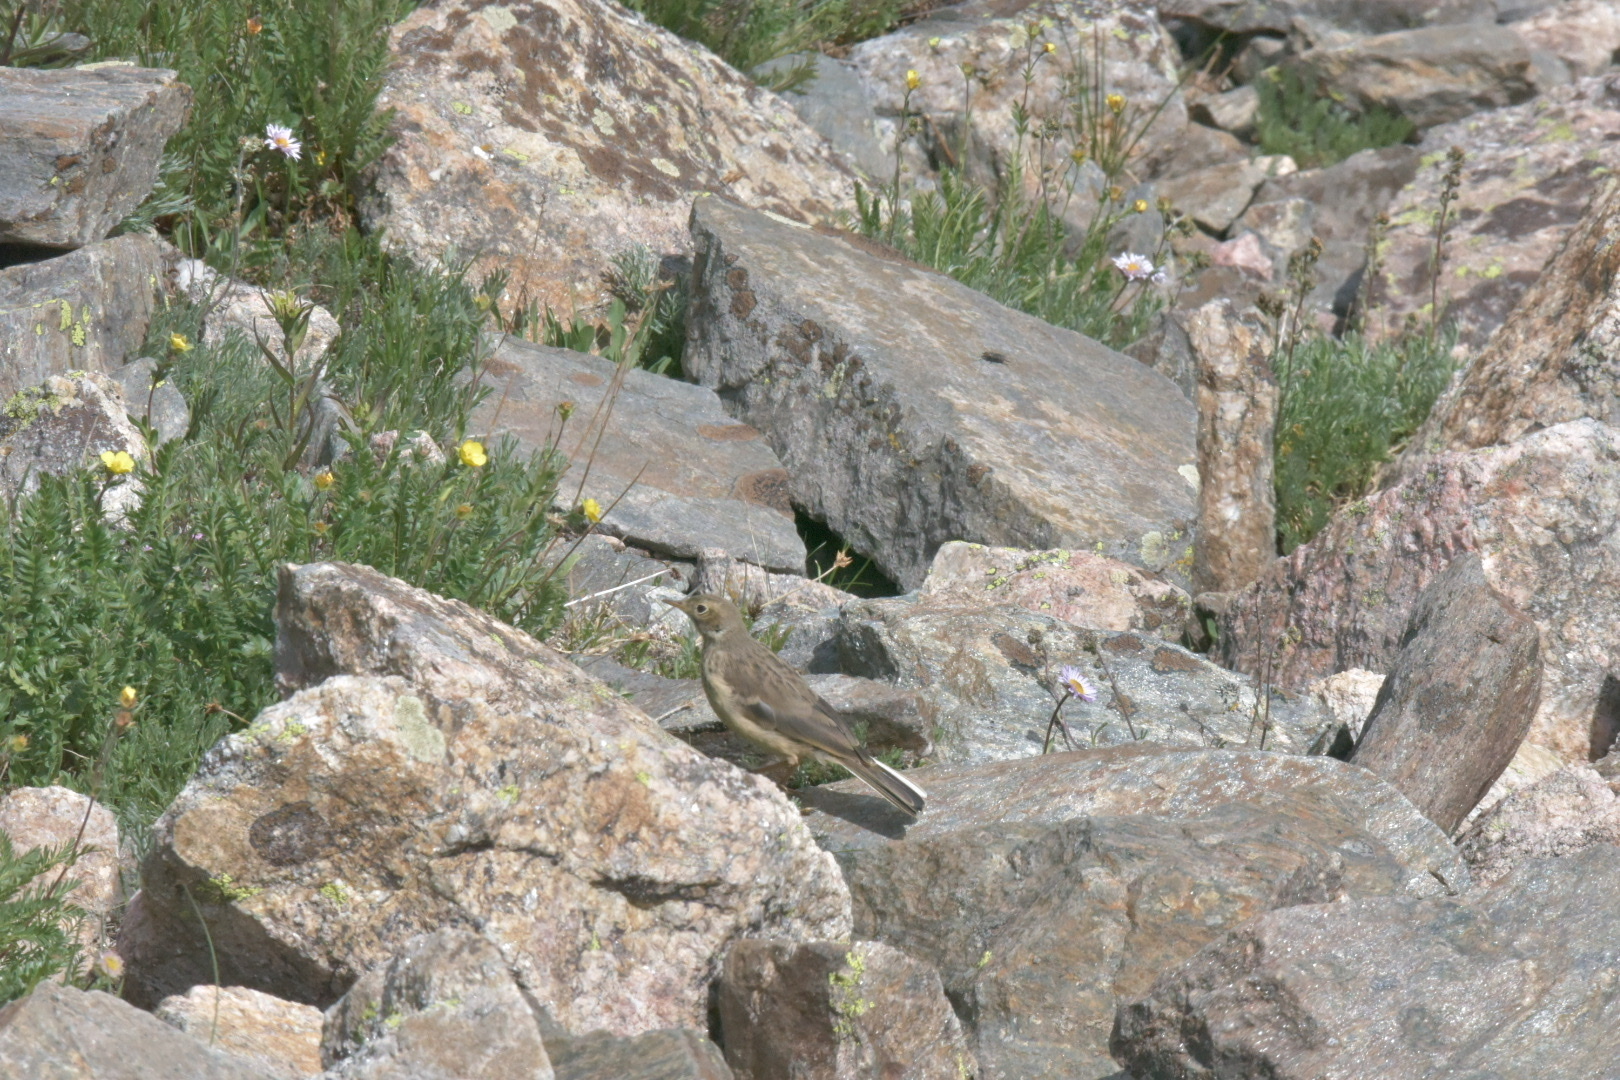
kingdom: Animalia
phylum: Chordata
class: Aves
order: Passeriformes
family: Motacillidae
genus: Anthus
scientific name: Anthus rubescens
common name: Buff-bellied pipit
